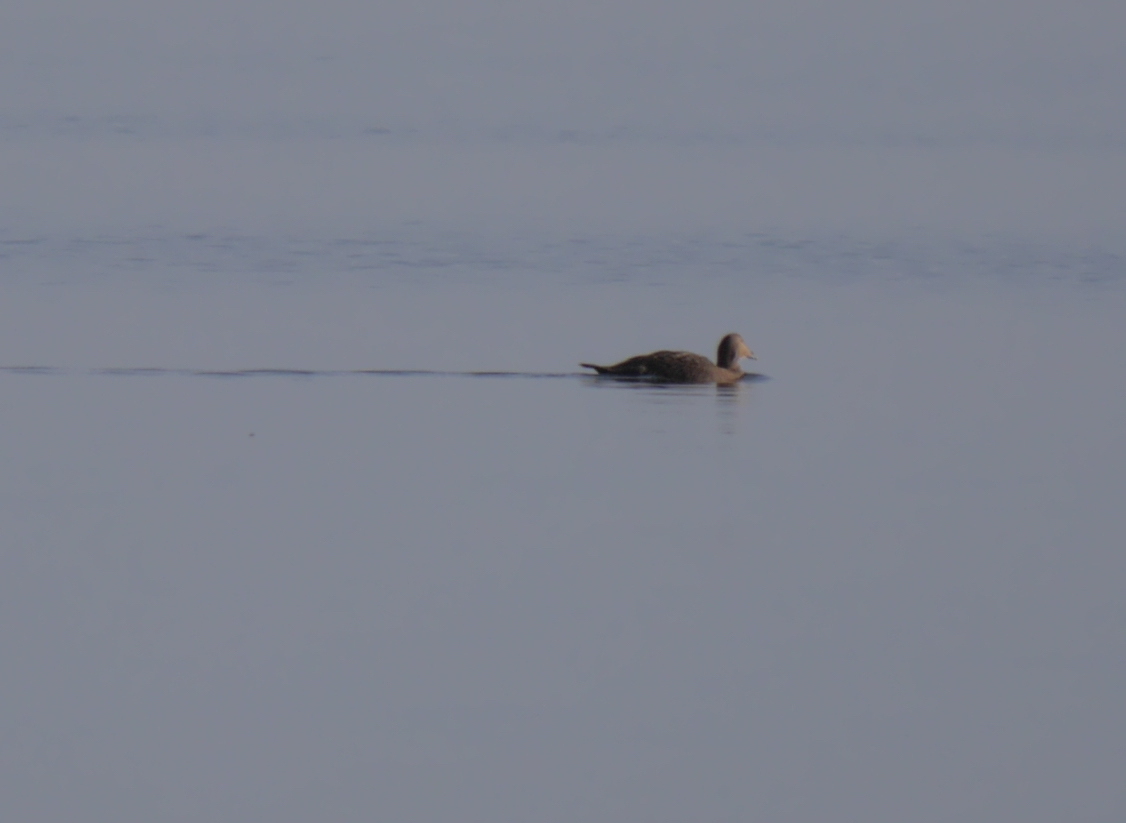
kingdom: Animalia
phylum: Chordata
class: Aves
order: Anseriformes
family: Anatidae
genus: Somateria
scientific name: Somateria mollissima
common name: Common eider
